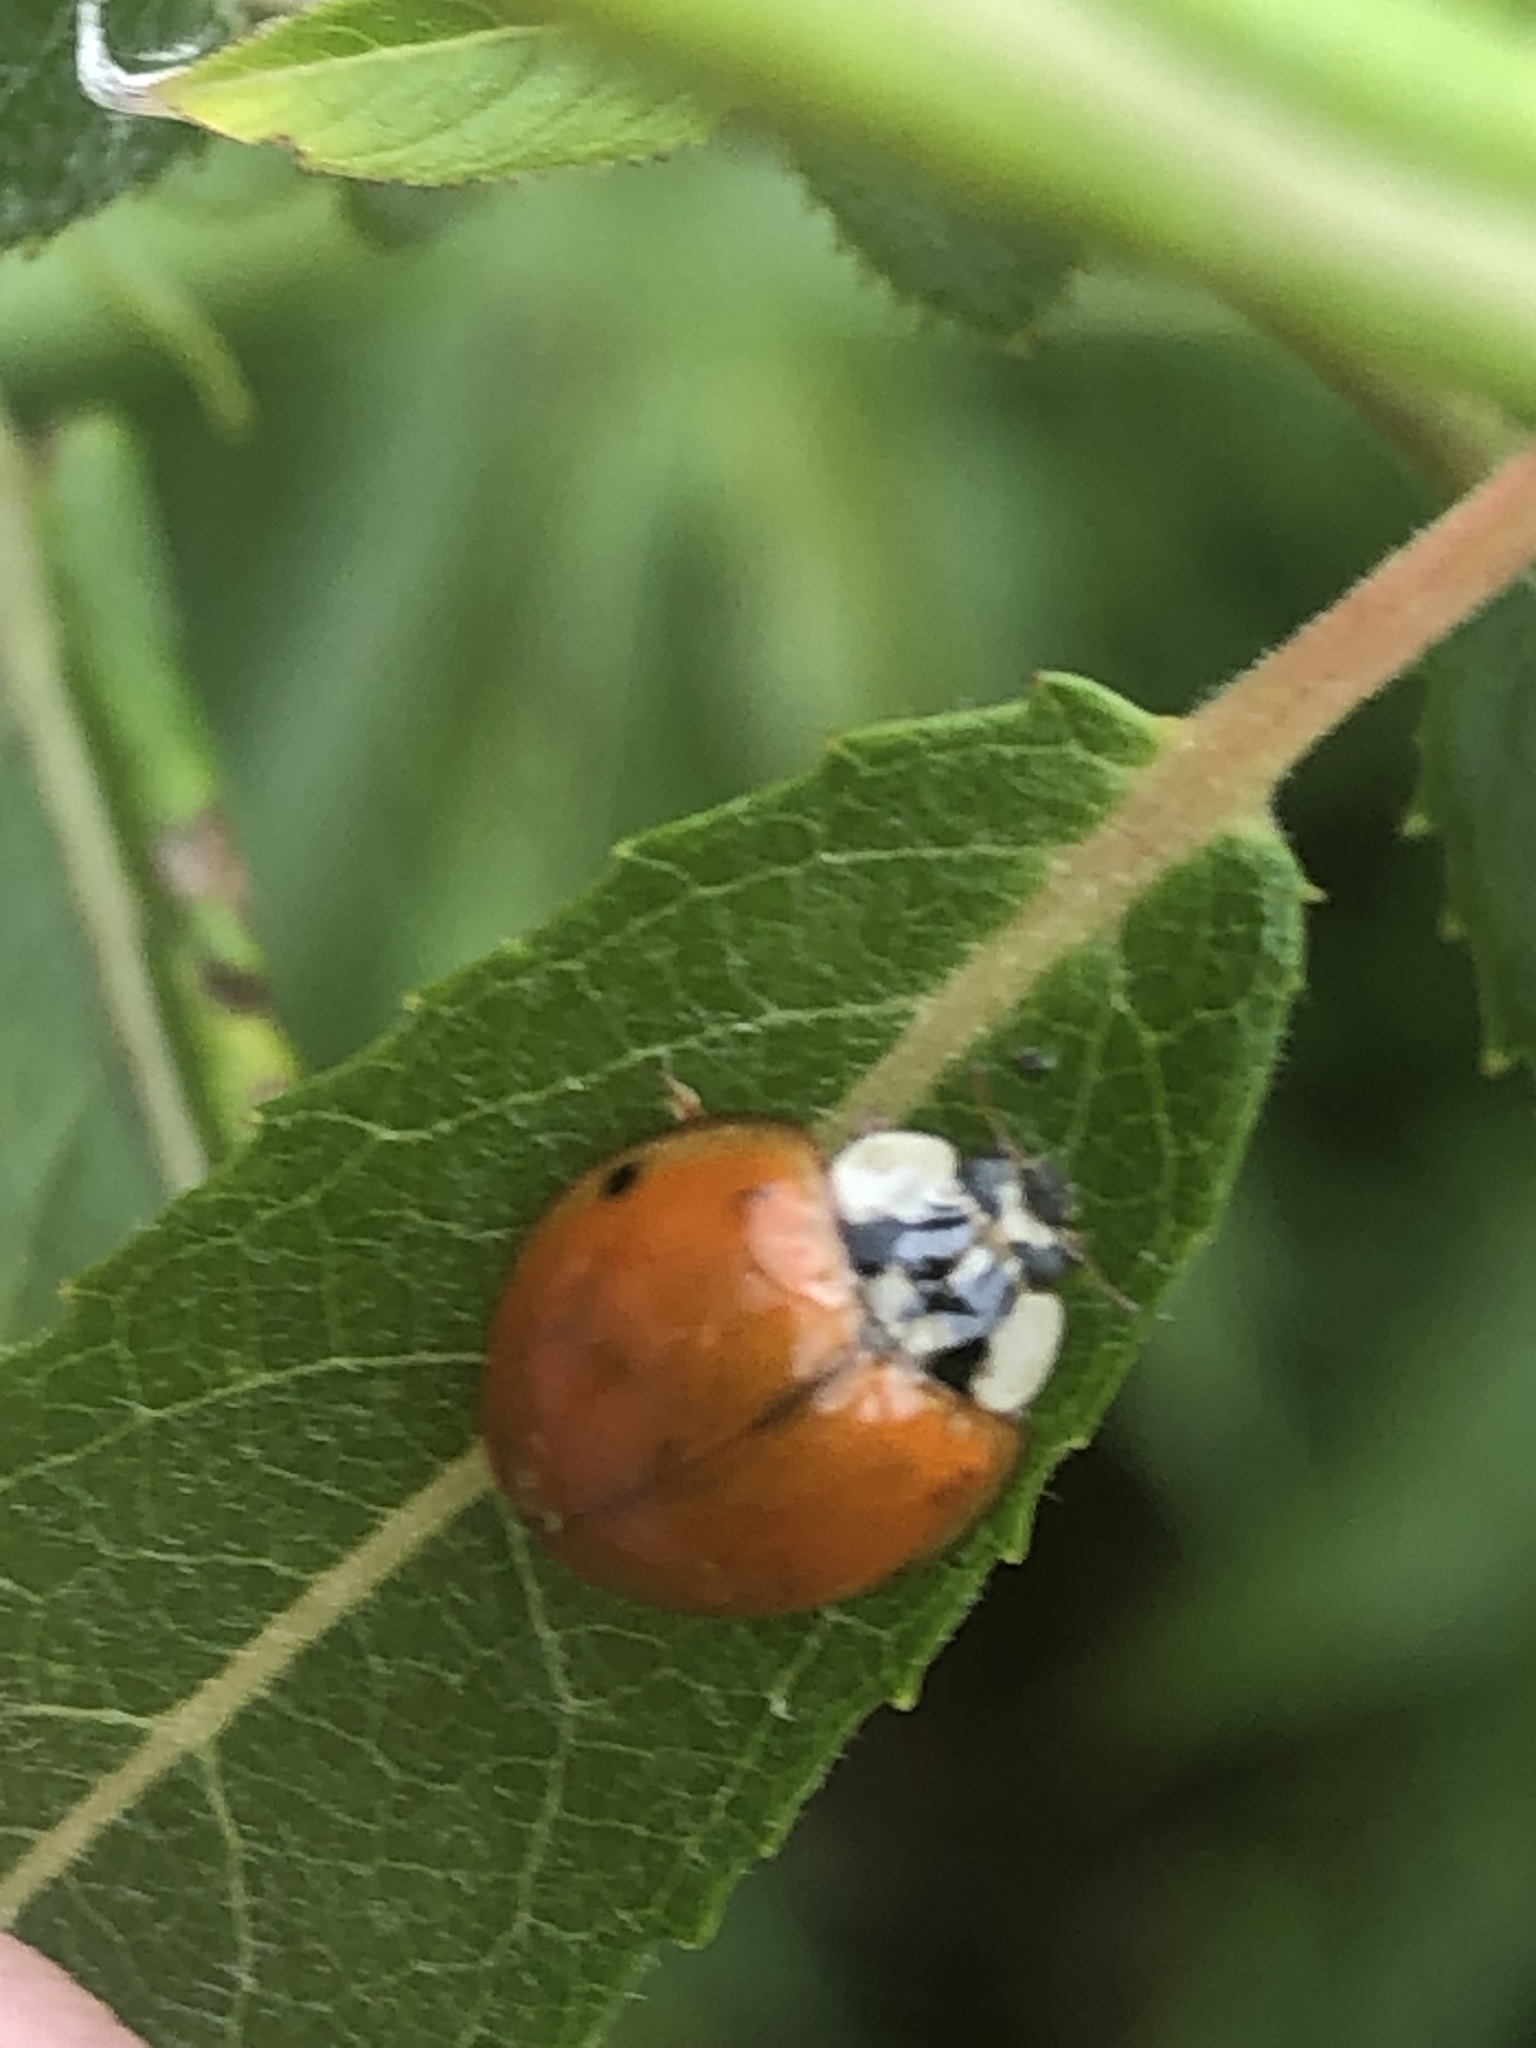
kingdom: Animalia
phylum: Arthropoda
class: Insecta
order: Coleoptera
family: Coccinellidae
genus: Harmonia
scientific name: Harmonia axyridis
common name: Harlequin ladybird
